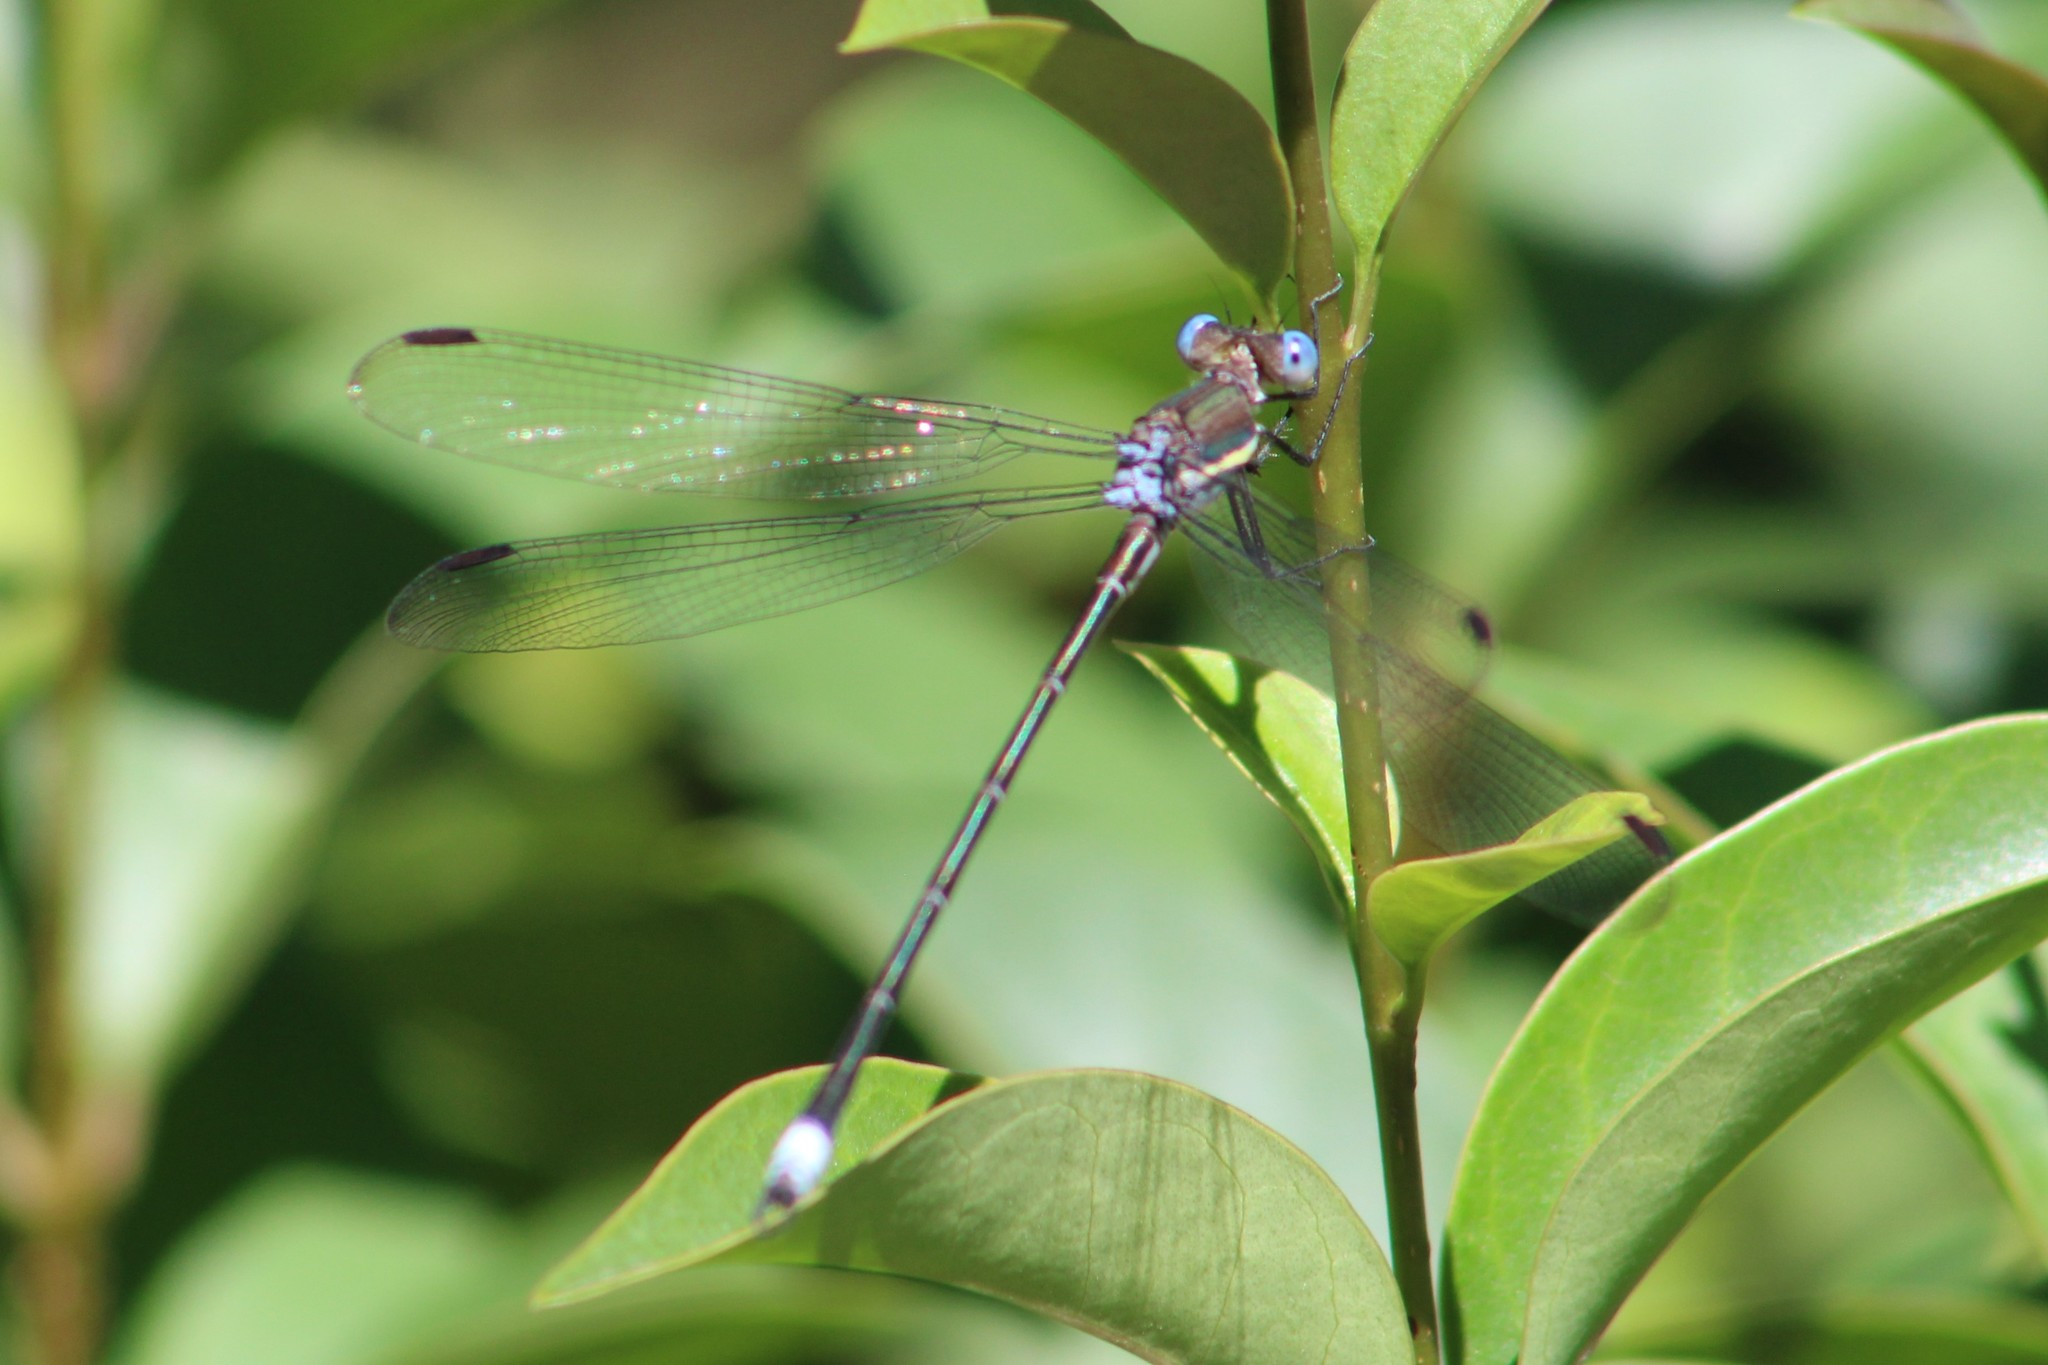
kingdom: Animalia
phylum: Arthropoda
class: Insecta
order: Odonata
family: Lestidae
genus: Archilestes
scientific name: Archilestes grandis
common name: Great spreadwing
